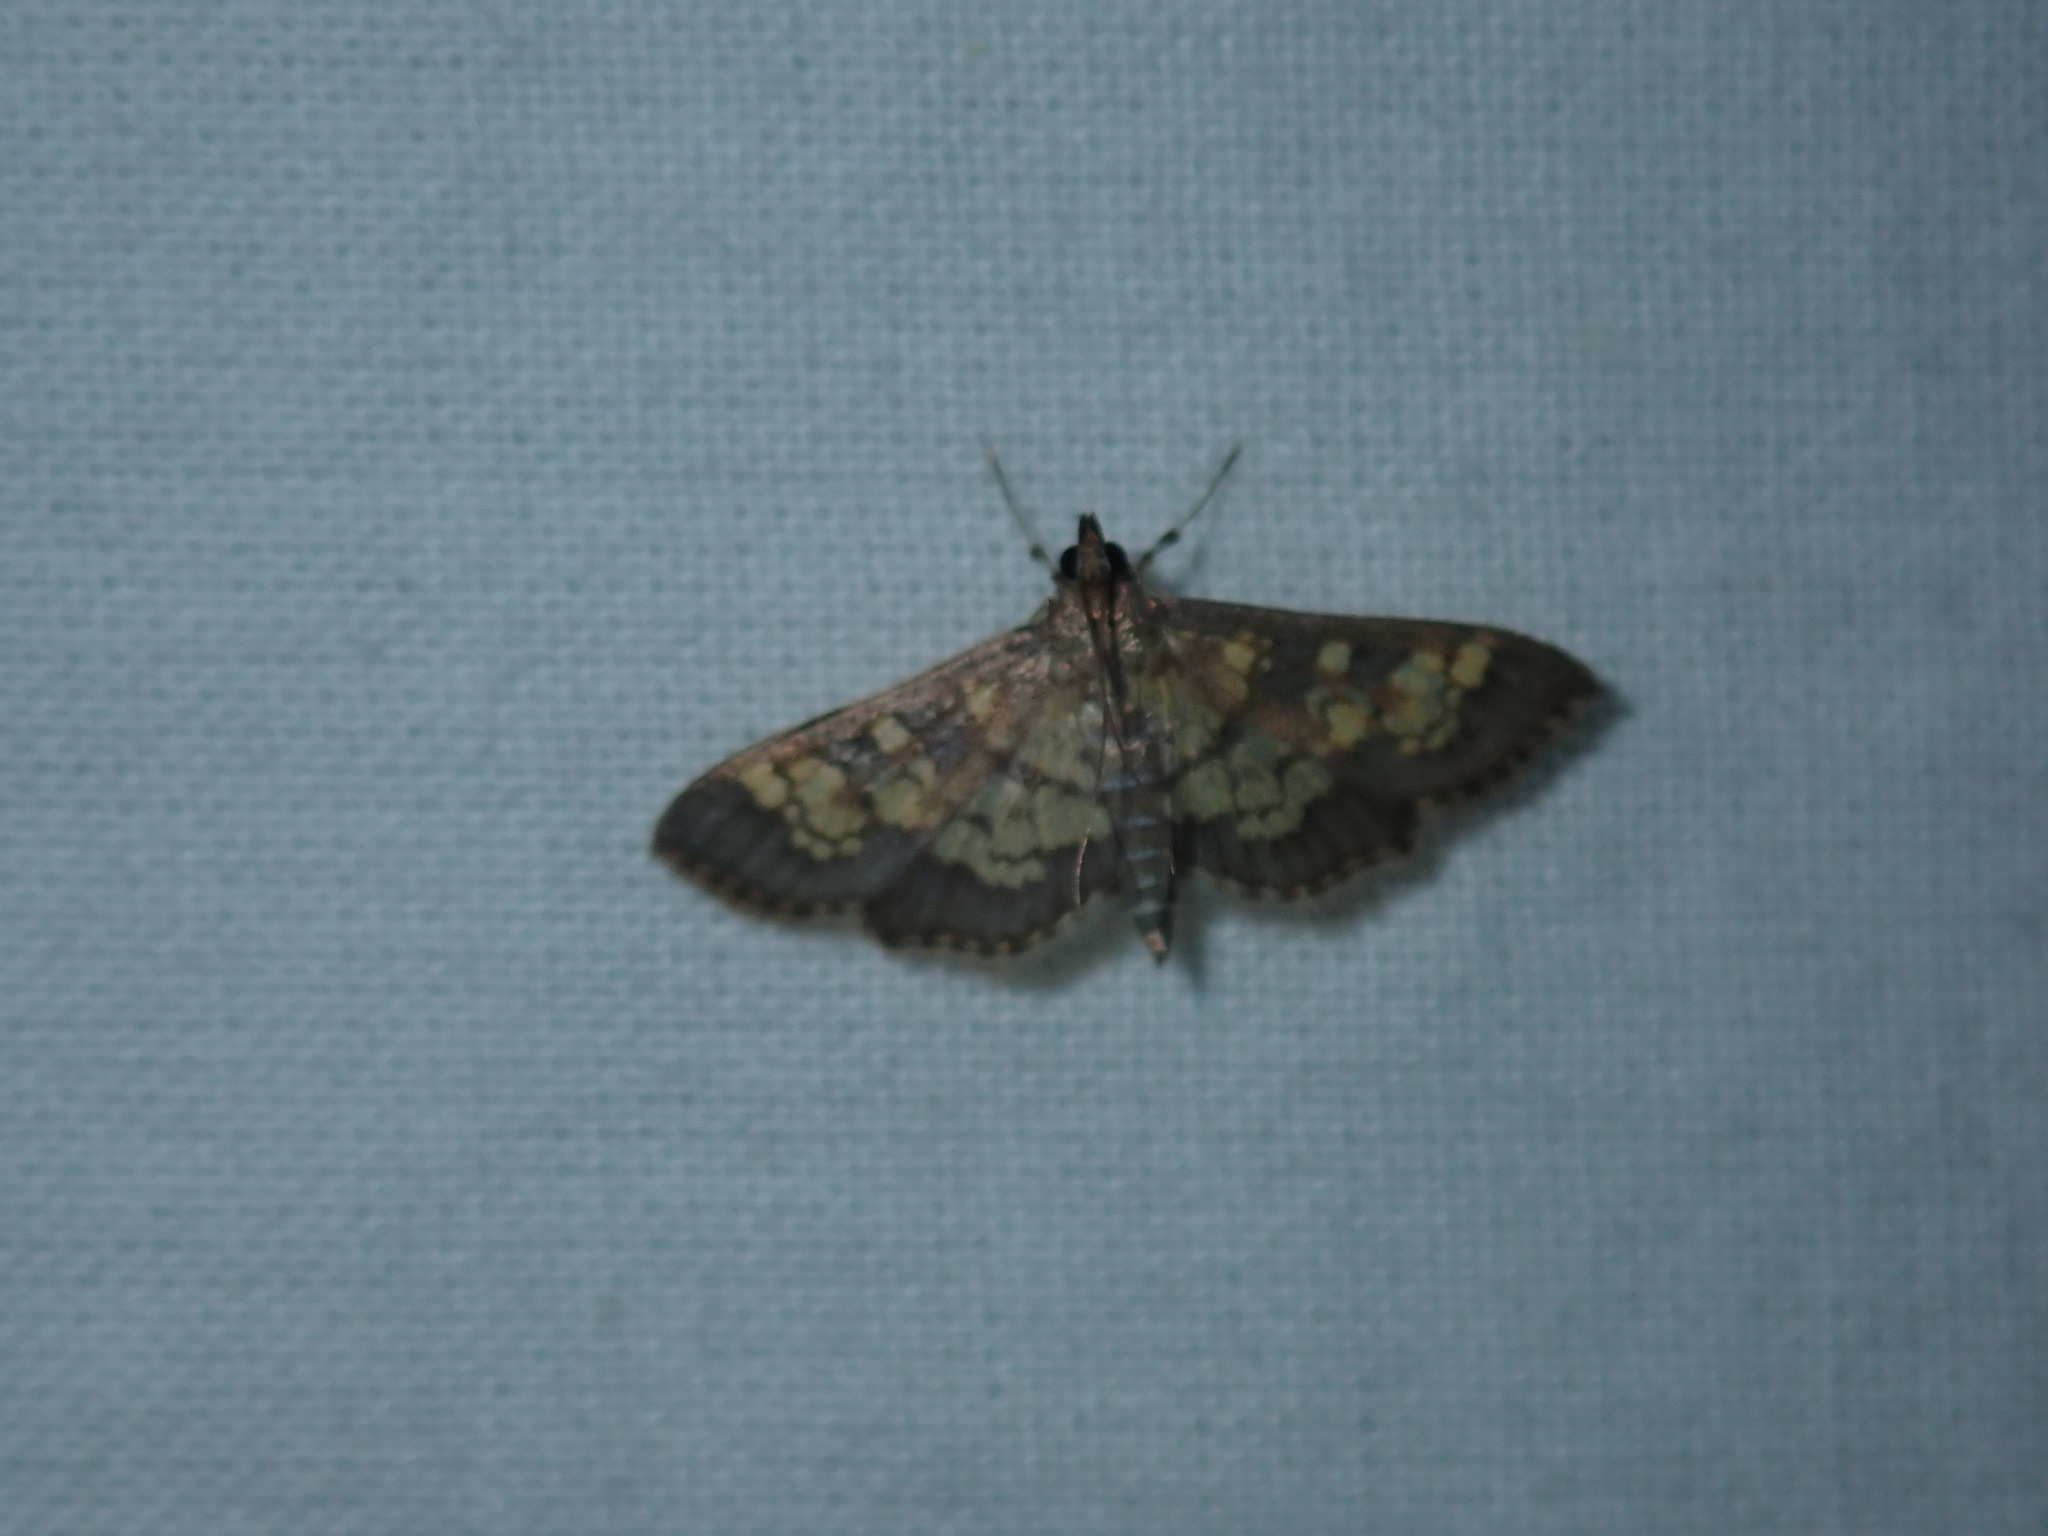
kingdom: Animalia
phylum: Arthropoda
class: Insecta
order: Lepidoptera
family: Crambidae
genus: Epipagis
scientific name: Epipagis adipaloides
